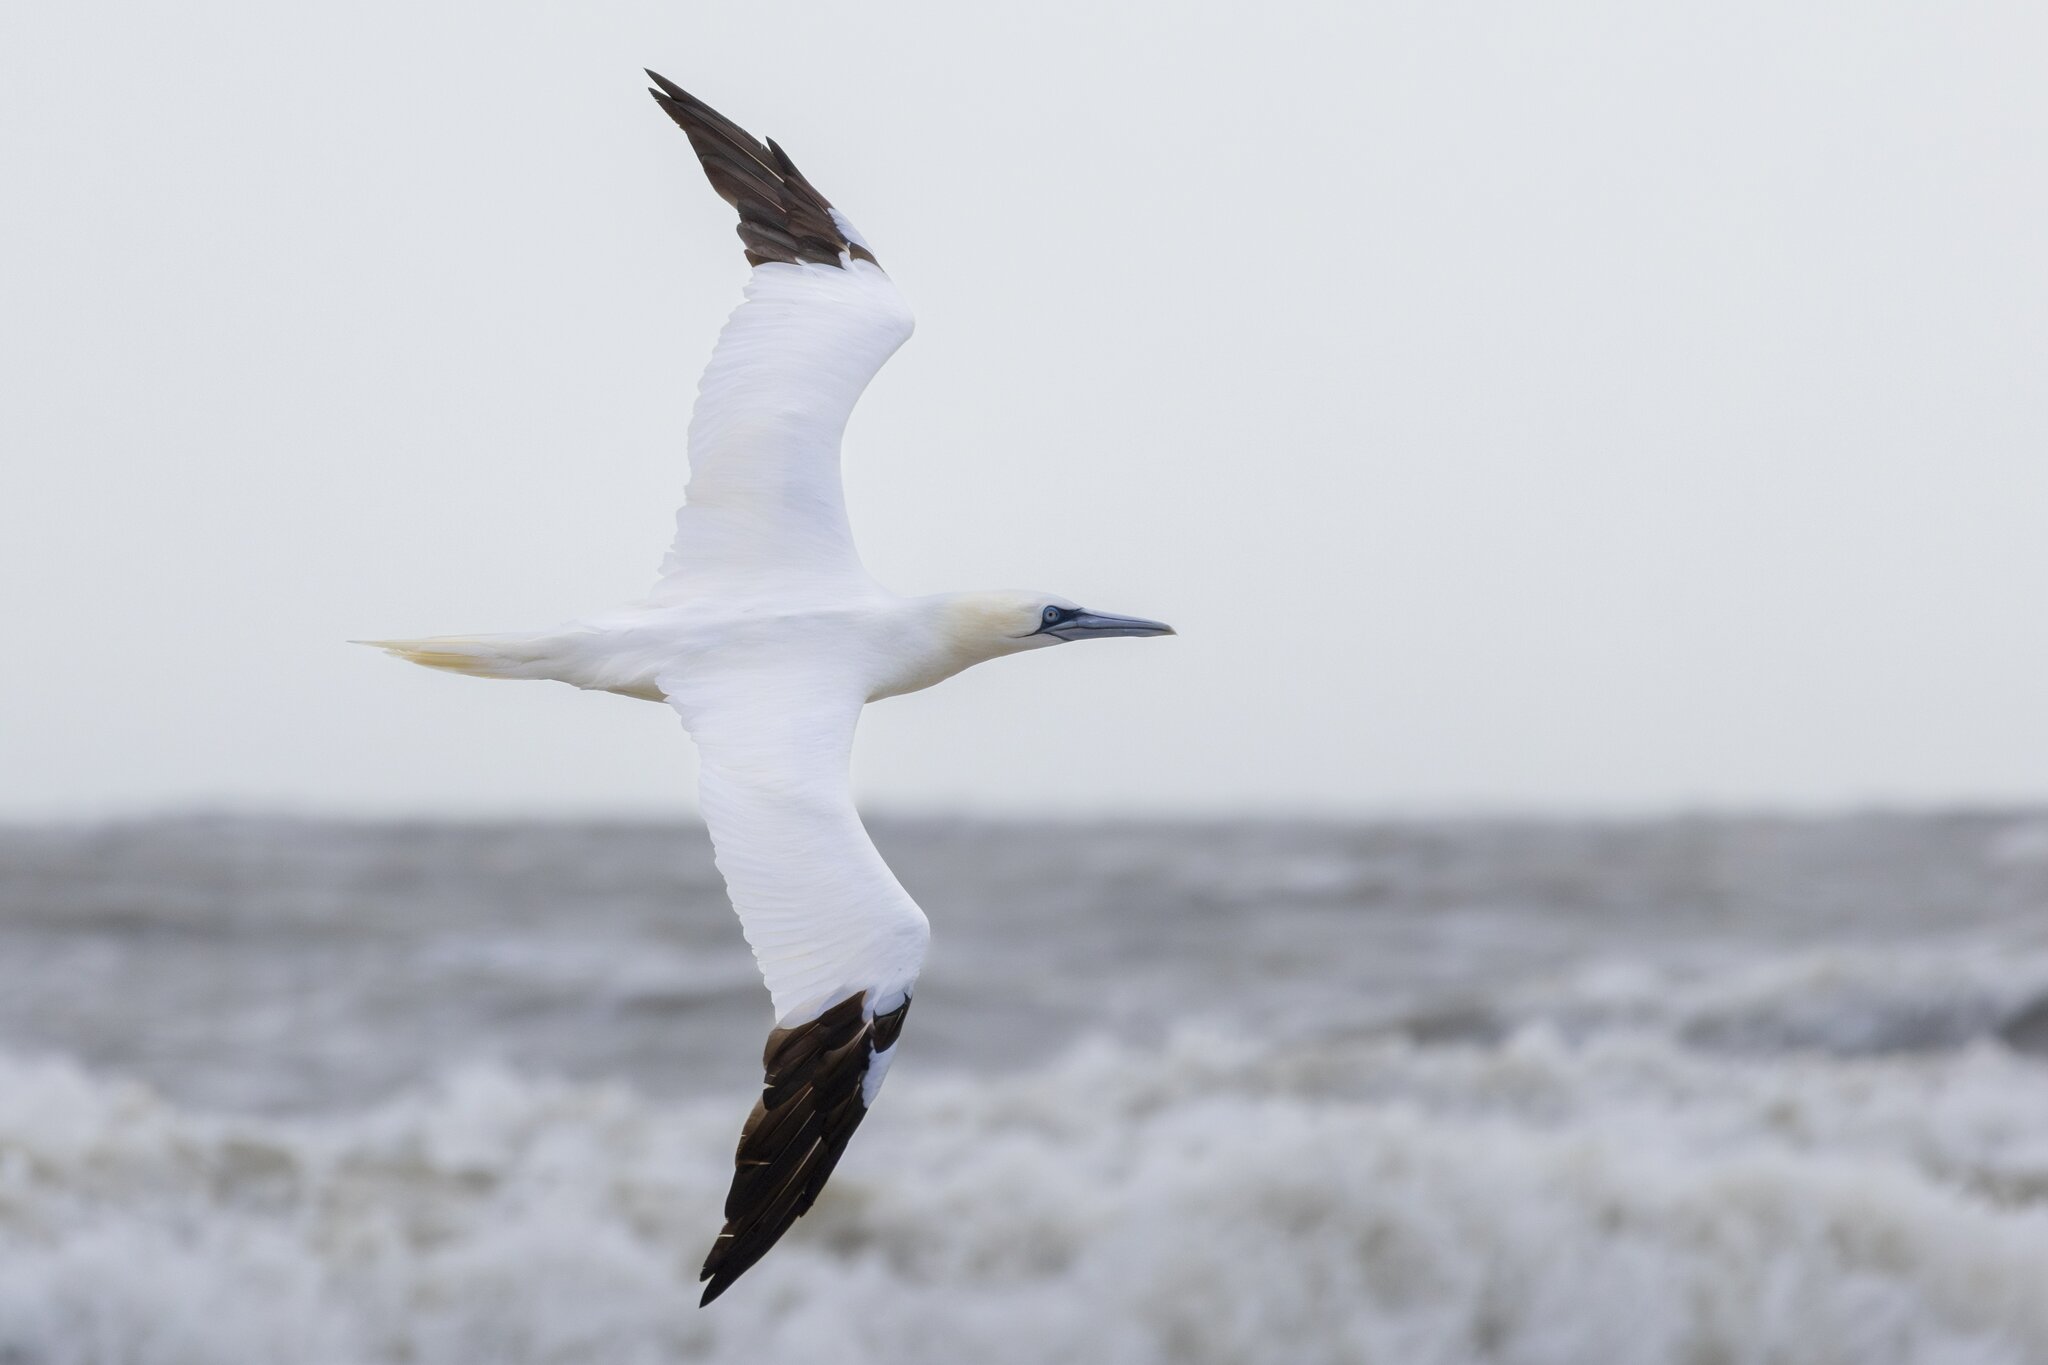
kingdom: Animalia
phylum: Chordata
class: Aves
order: Suliformes
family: Sulidae
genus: Morus
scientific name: Morus bassanus
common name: Northern gannet
